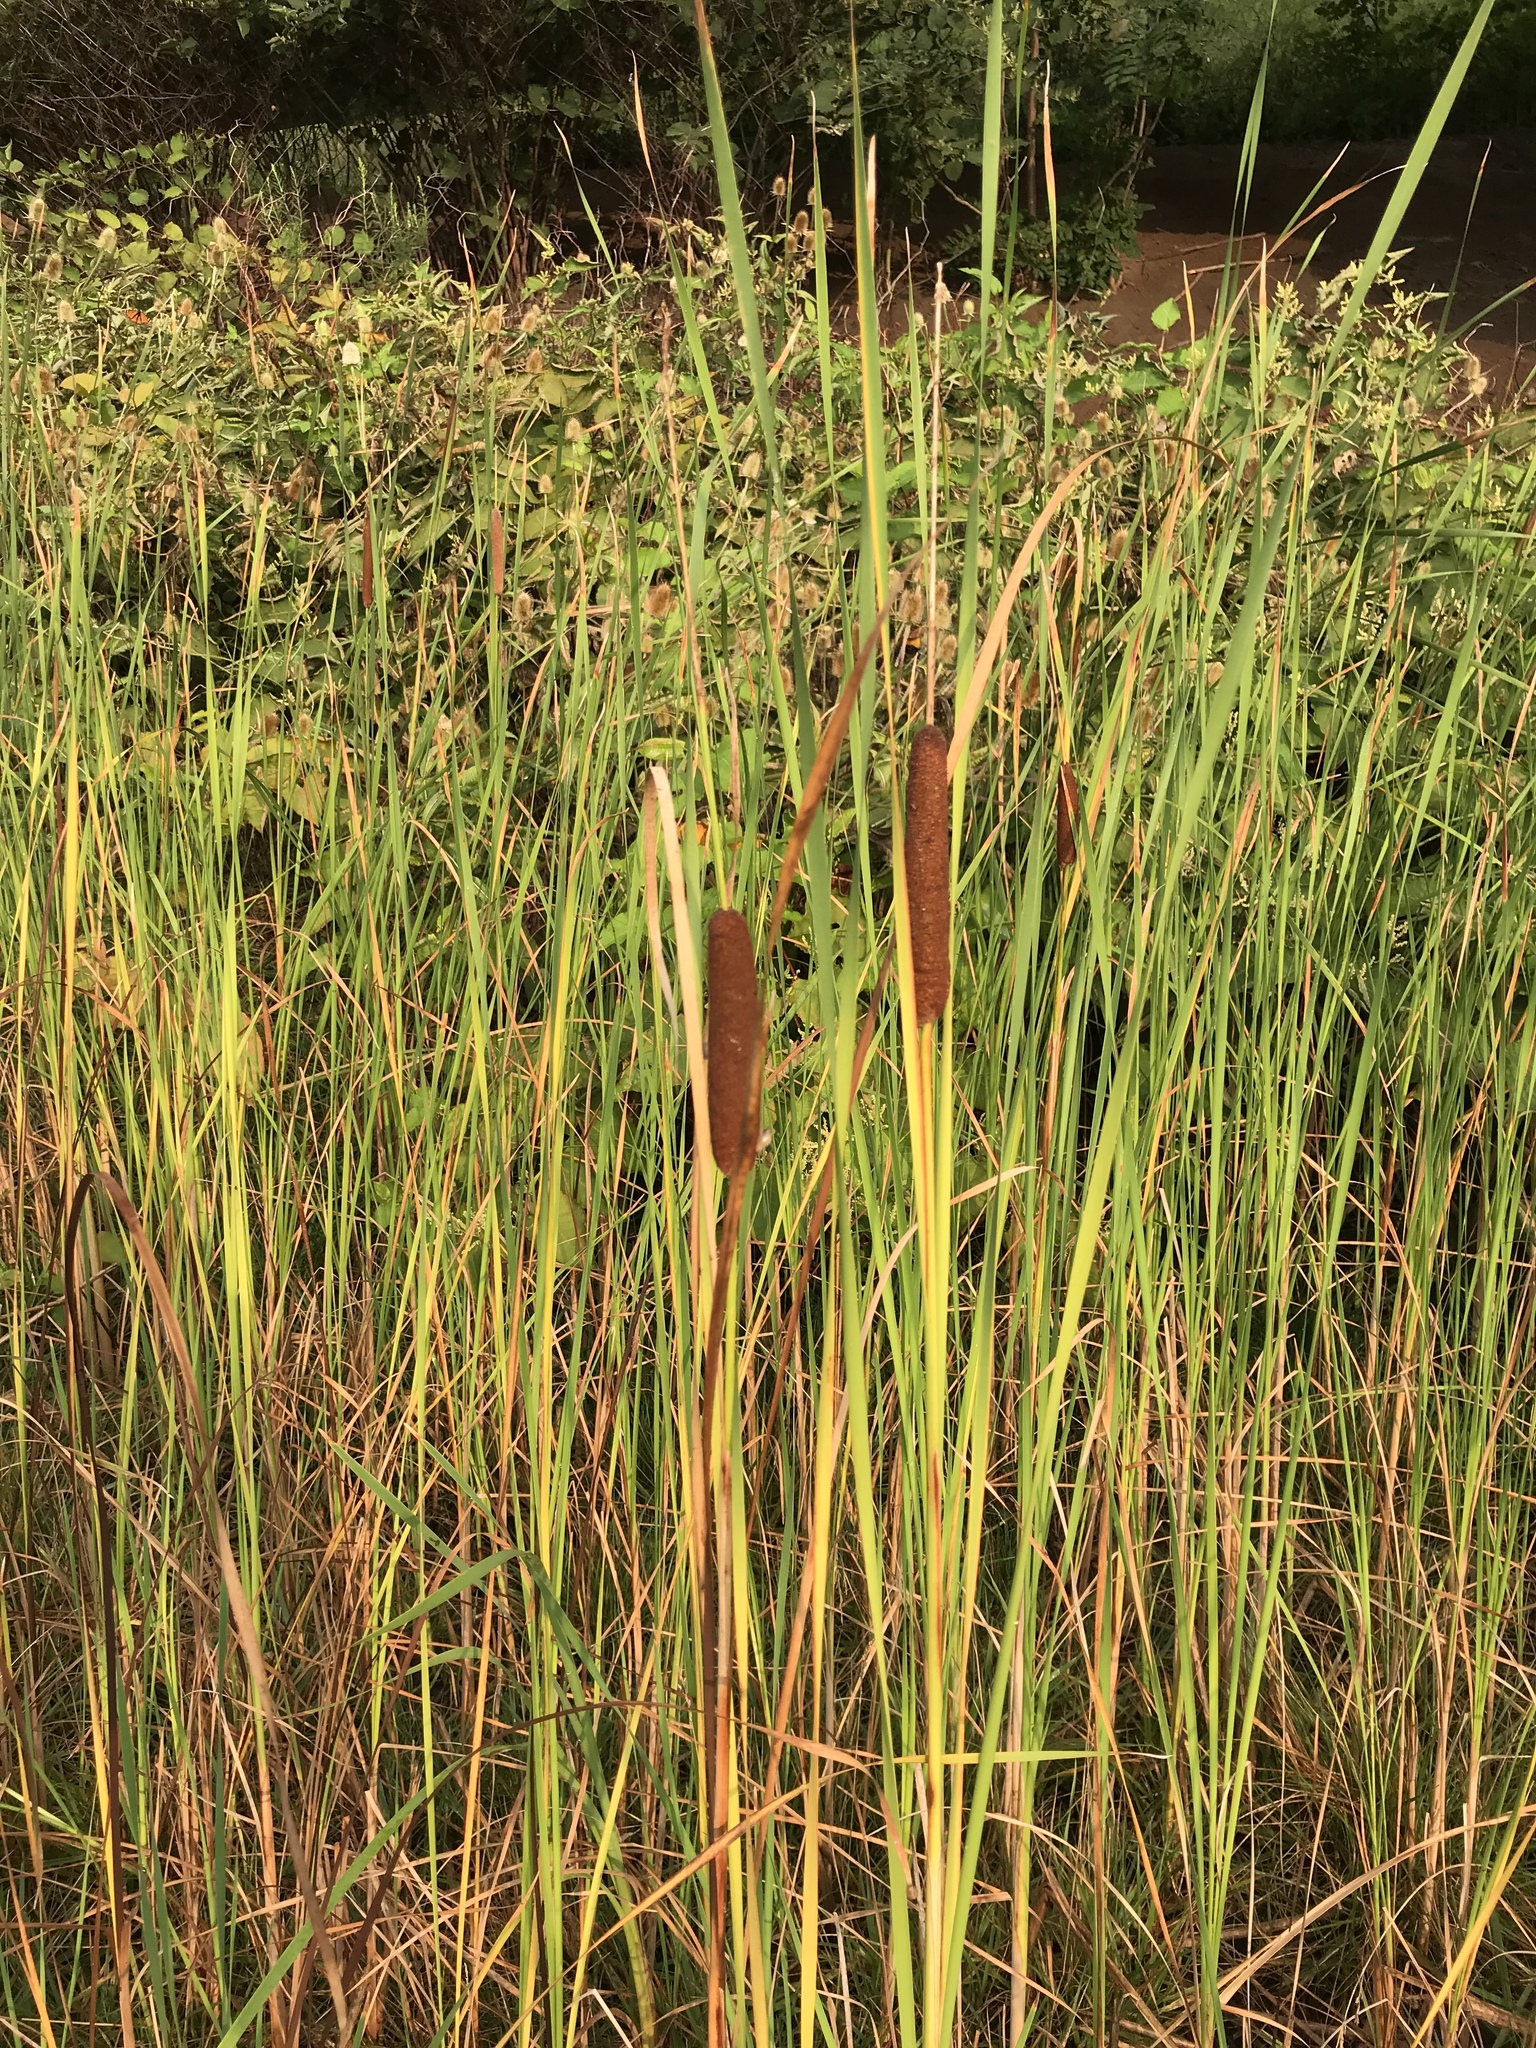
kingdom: Plantae
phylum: Tracheophyta
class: Liliopsida
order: Poales
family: Typhaceae
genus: Typha
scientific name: Typha angustifolia
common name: Lesser bulrush
